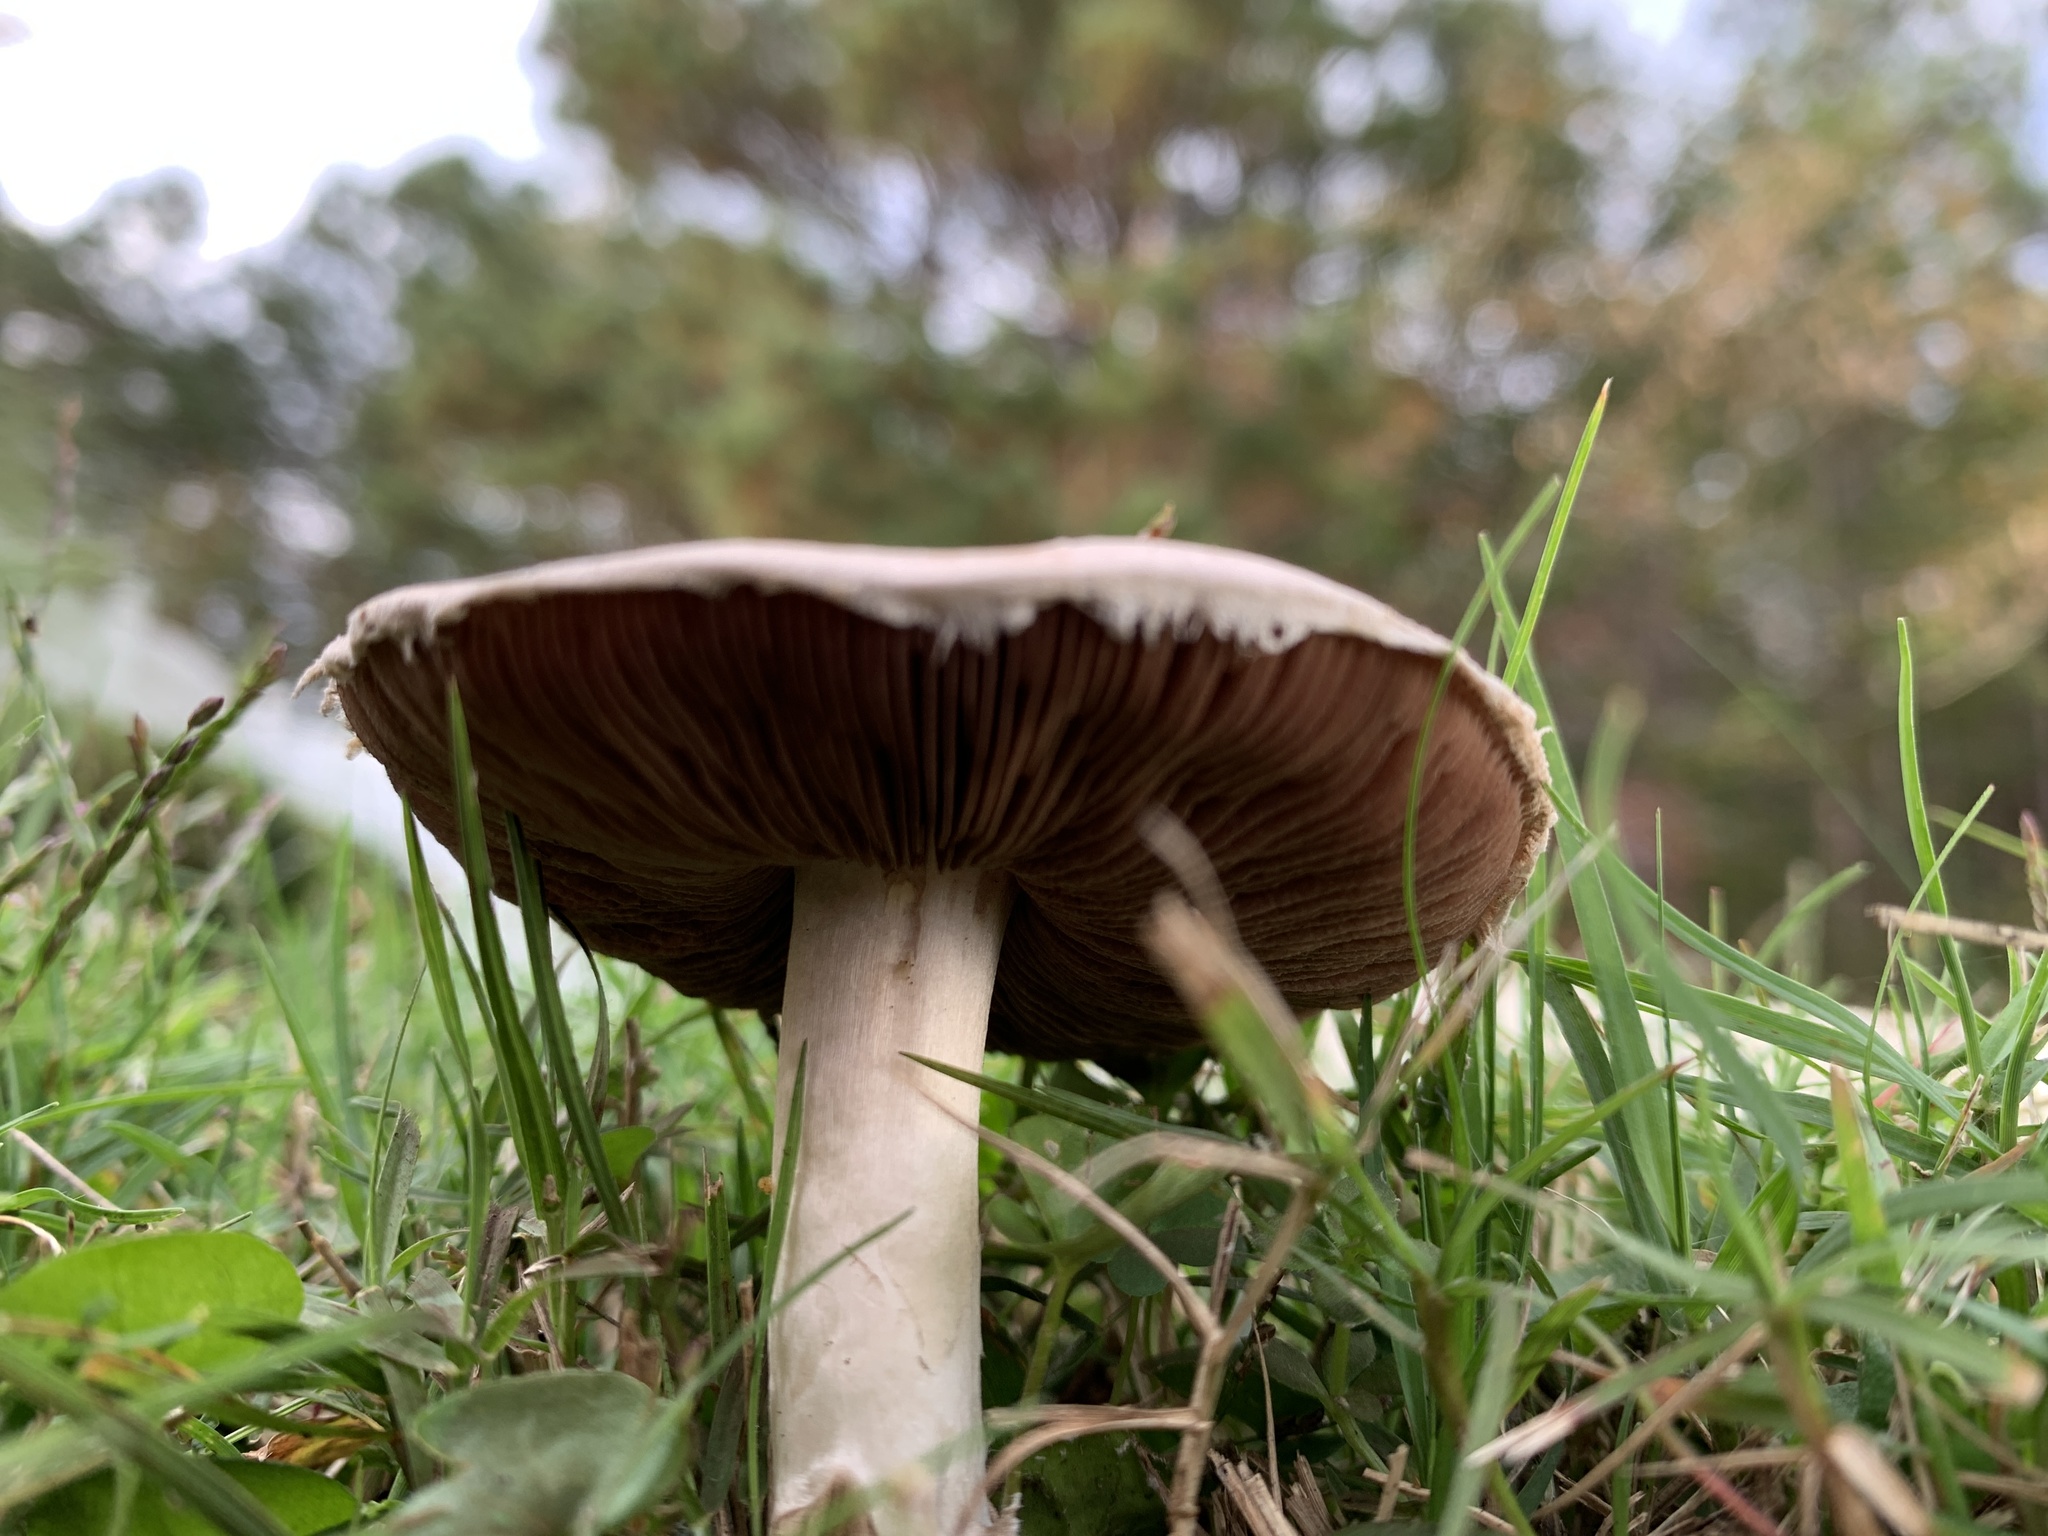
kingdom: Fungi
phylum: Basidiomycota
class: Agaricomycetes
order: Agaricales
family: Agaricaceae
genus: Agaricus
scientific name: Agaricus campestris
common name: Field mushroom
